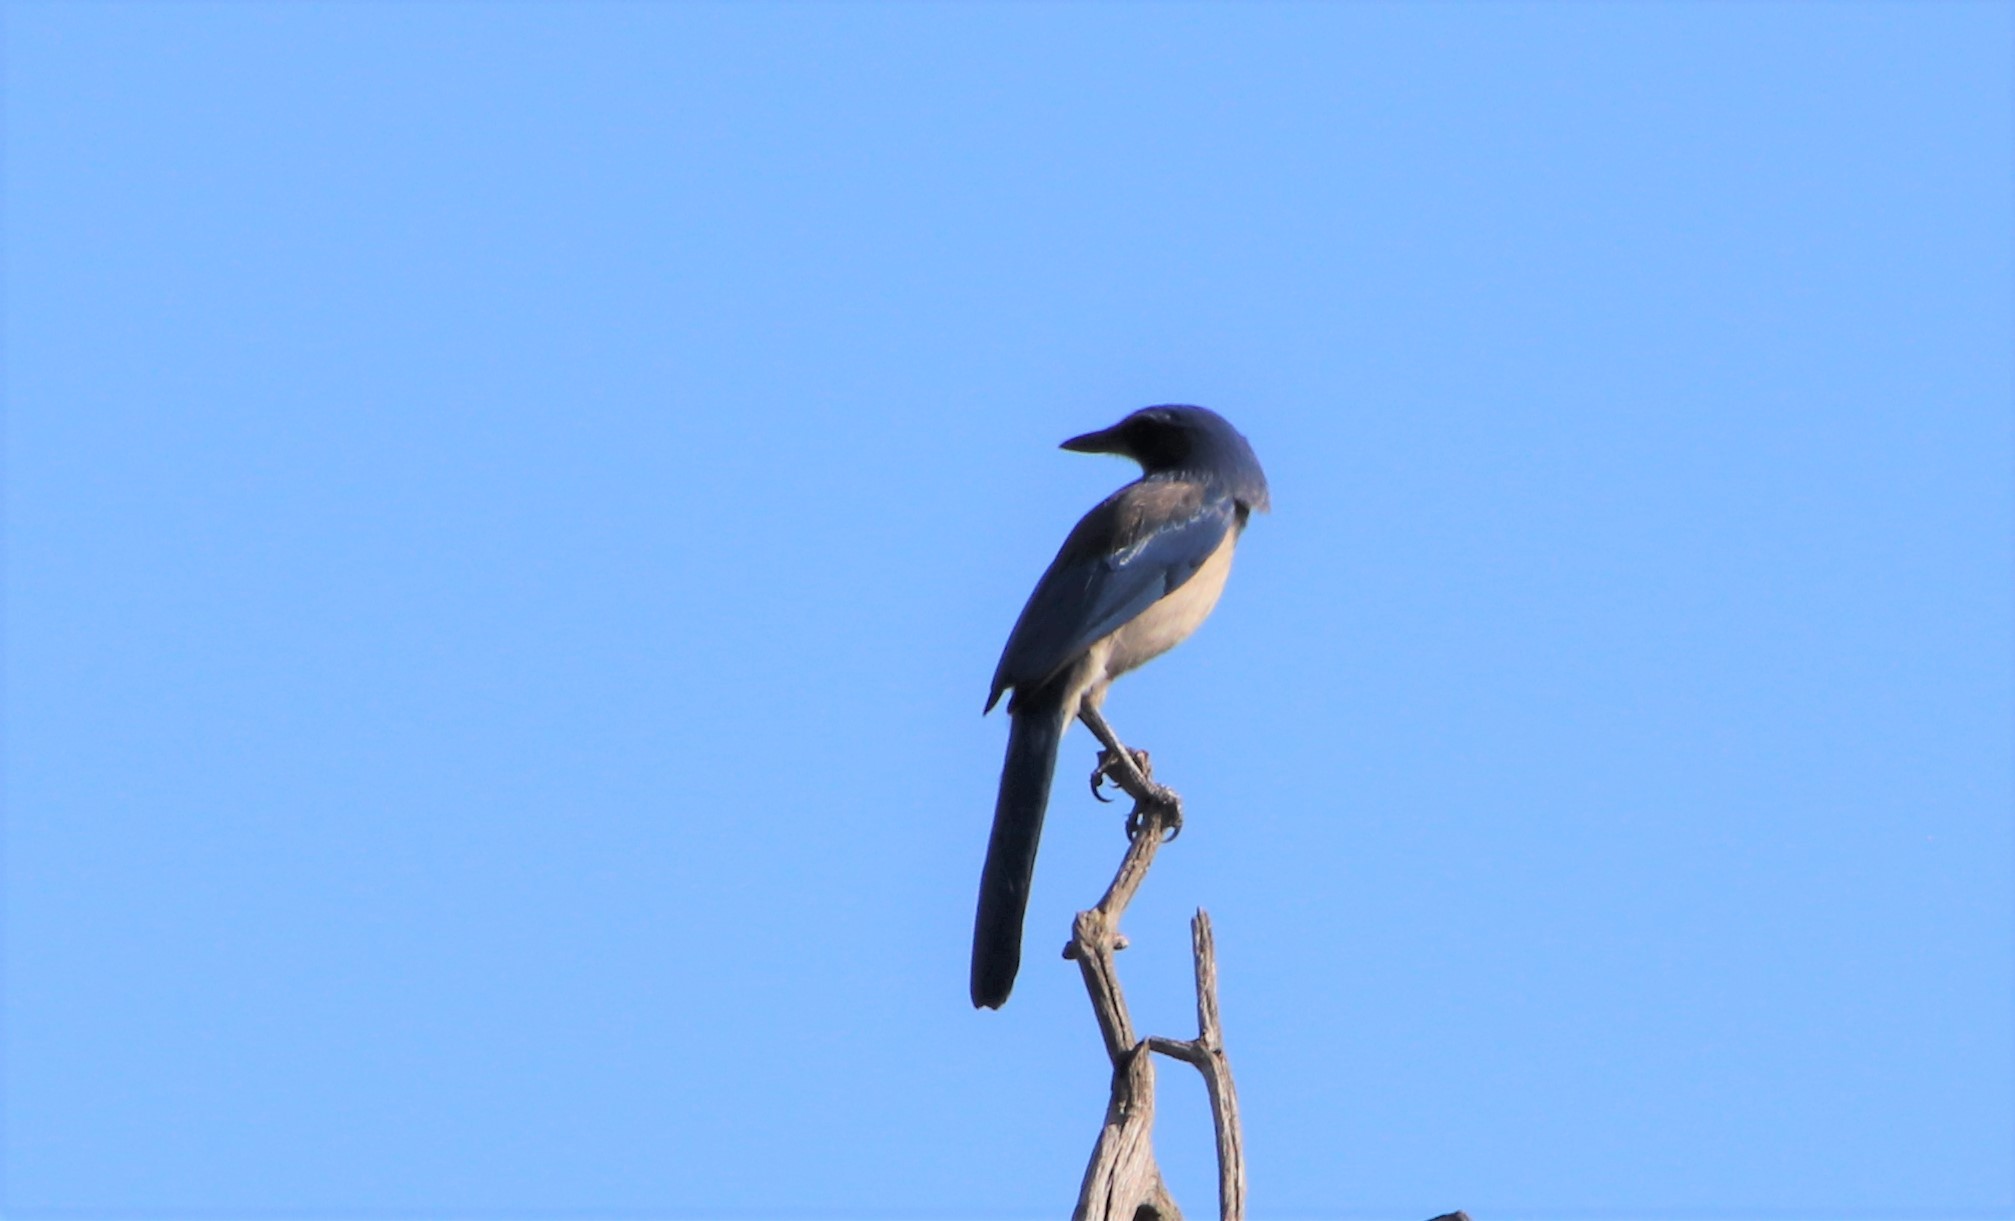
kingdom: Animalia
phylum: Chordata
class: Aves
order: Passeriformes
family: Corvidae
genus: Aphelocoma
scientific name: Aphelocoma californica
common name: California scrub-jay
